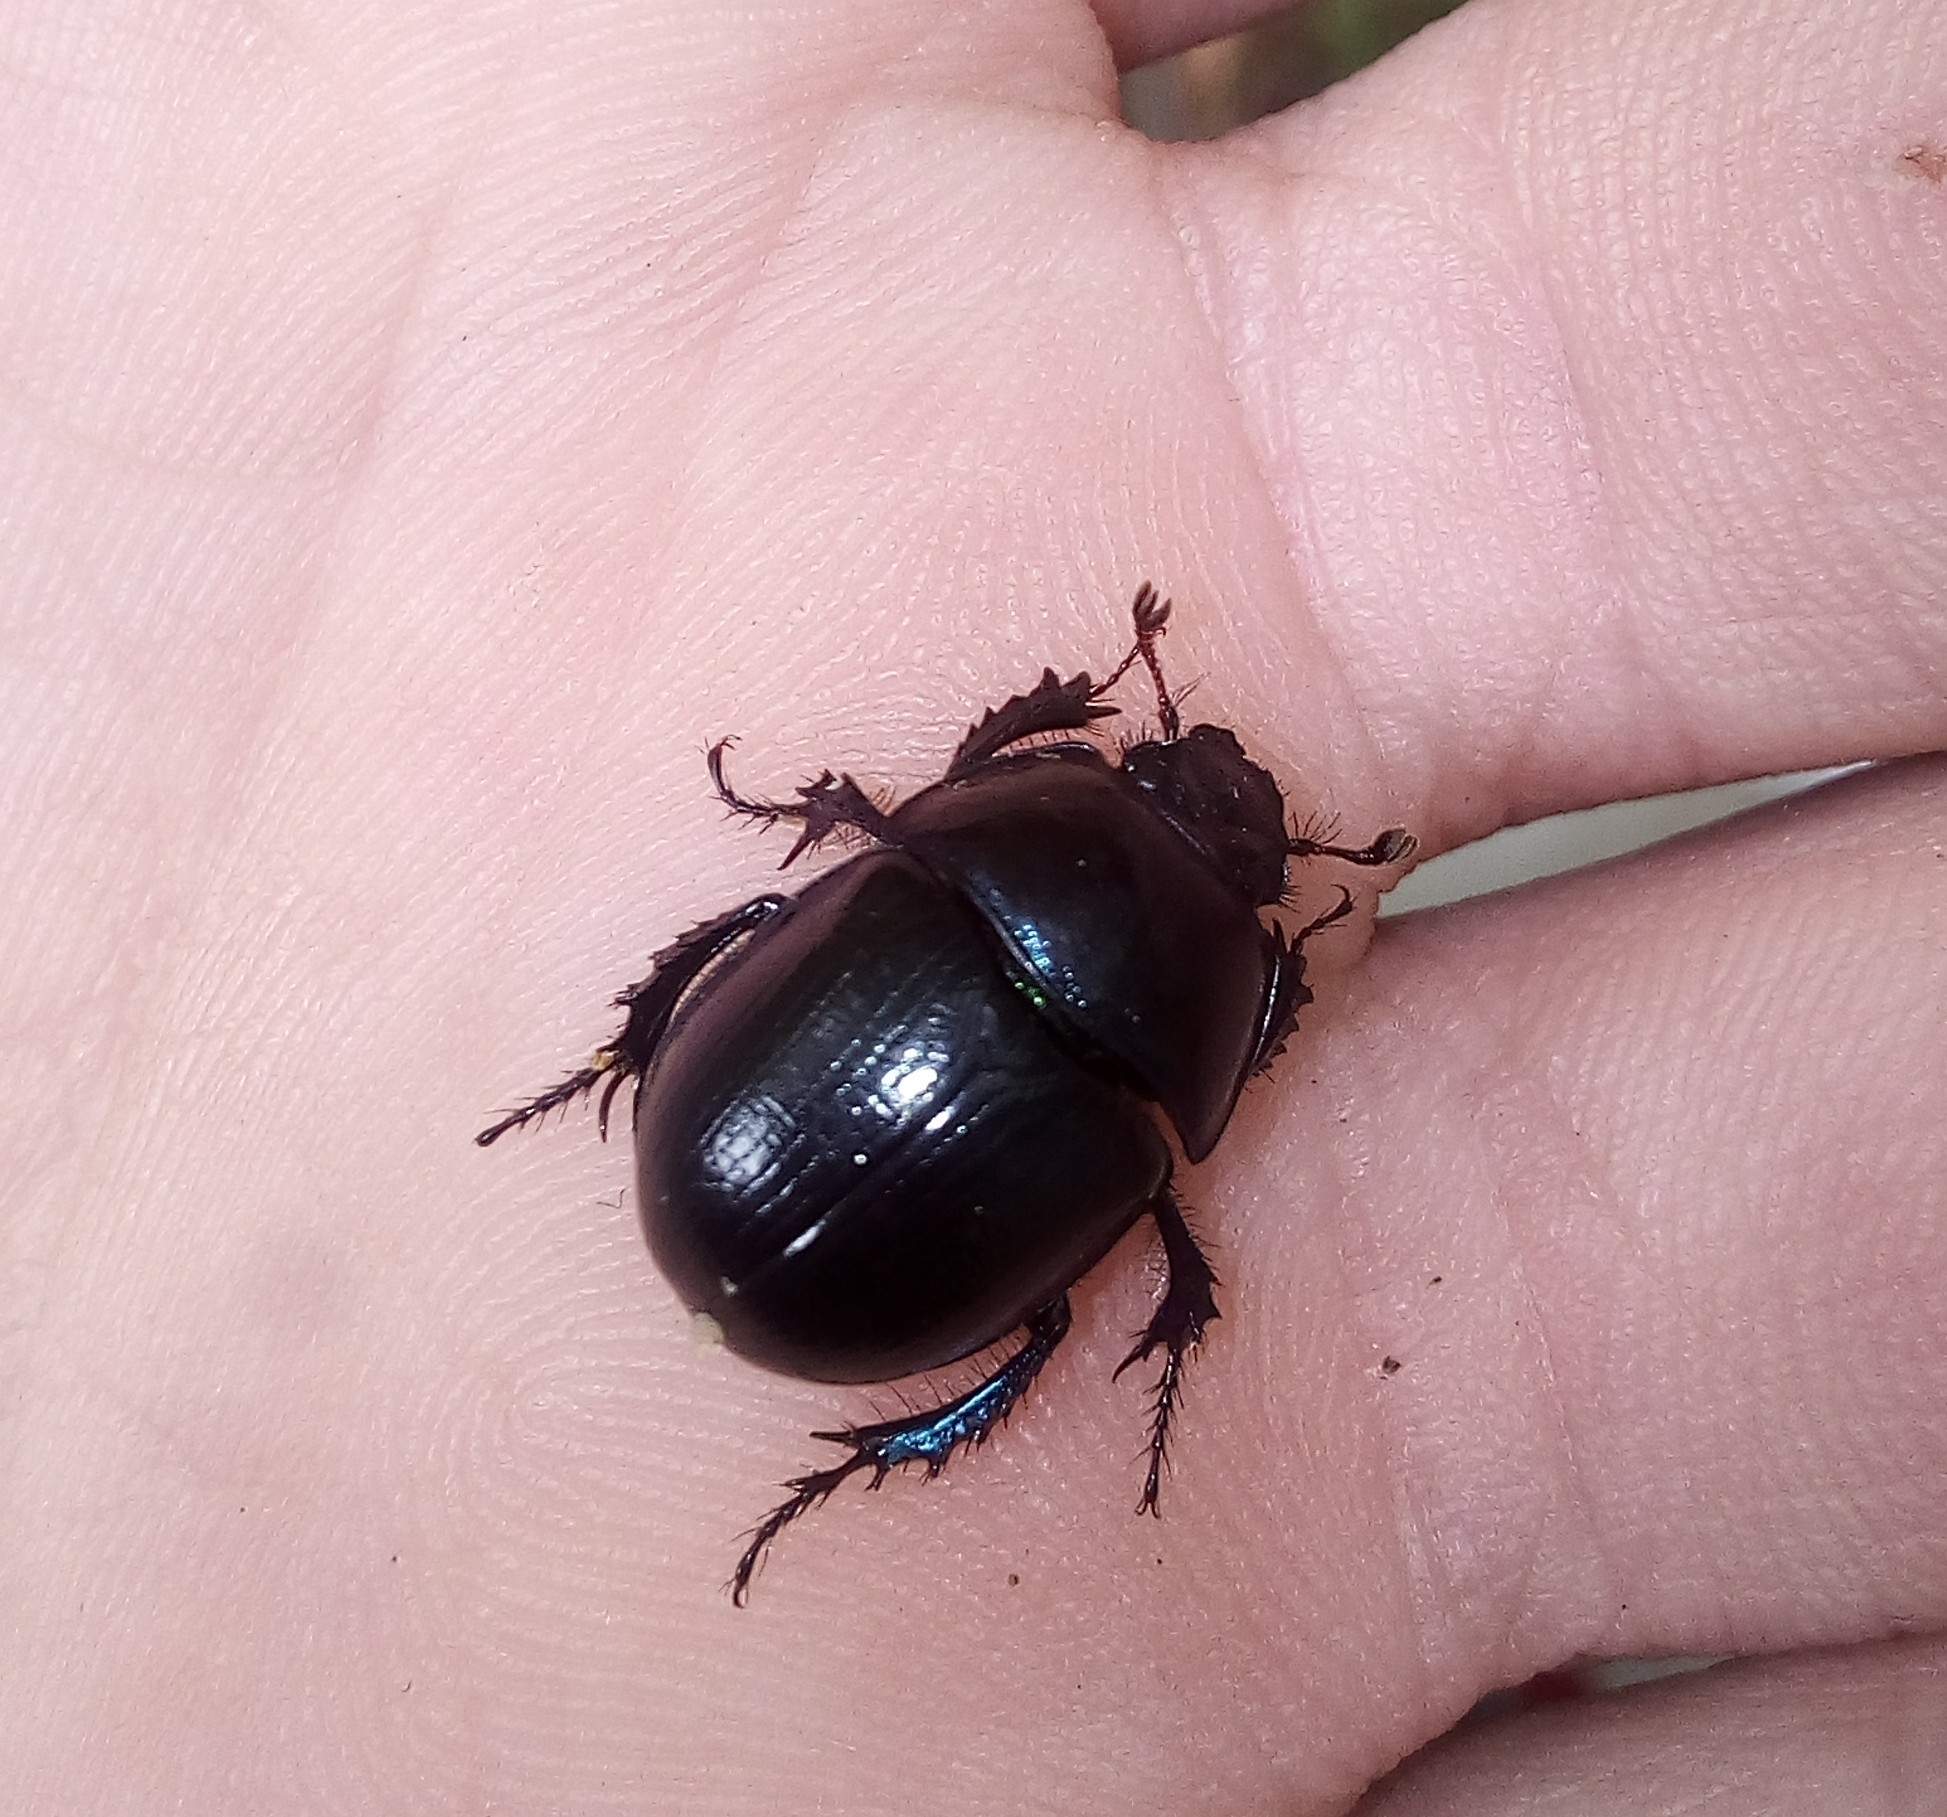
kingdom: Animalia
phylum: Arthropoda
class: Insecta
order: Coleoptera
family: Geotrupidae
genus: Anoplotrupes
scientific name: Anoplotrupes stercorosus
